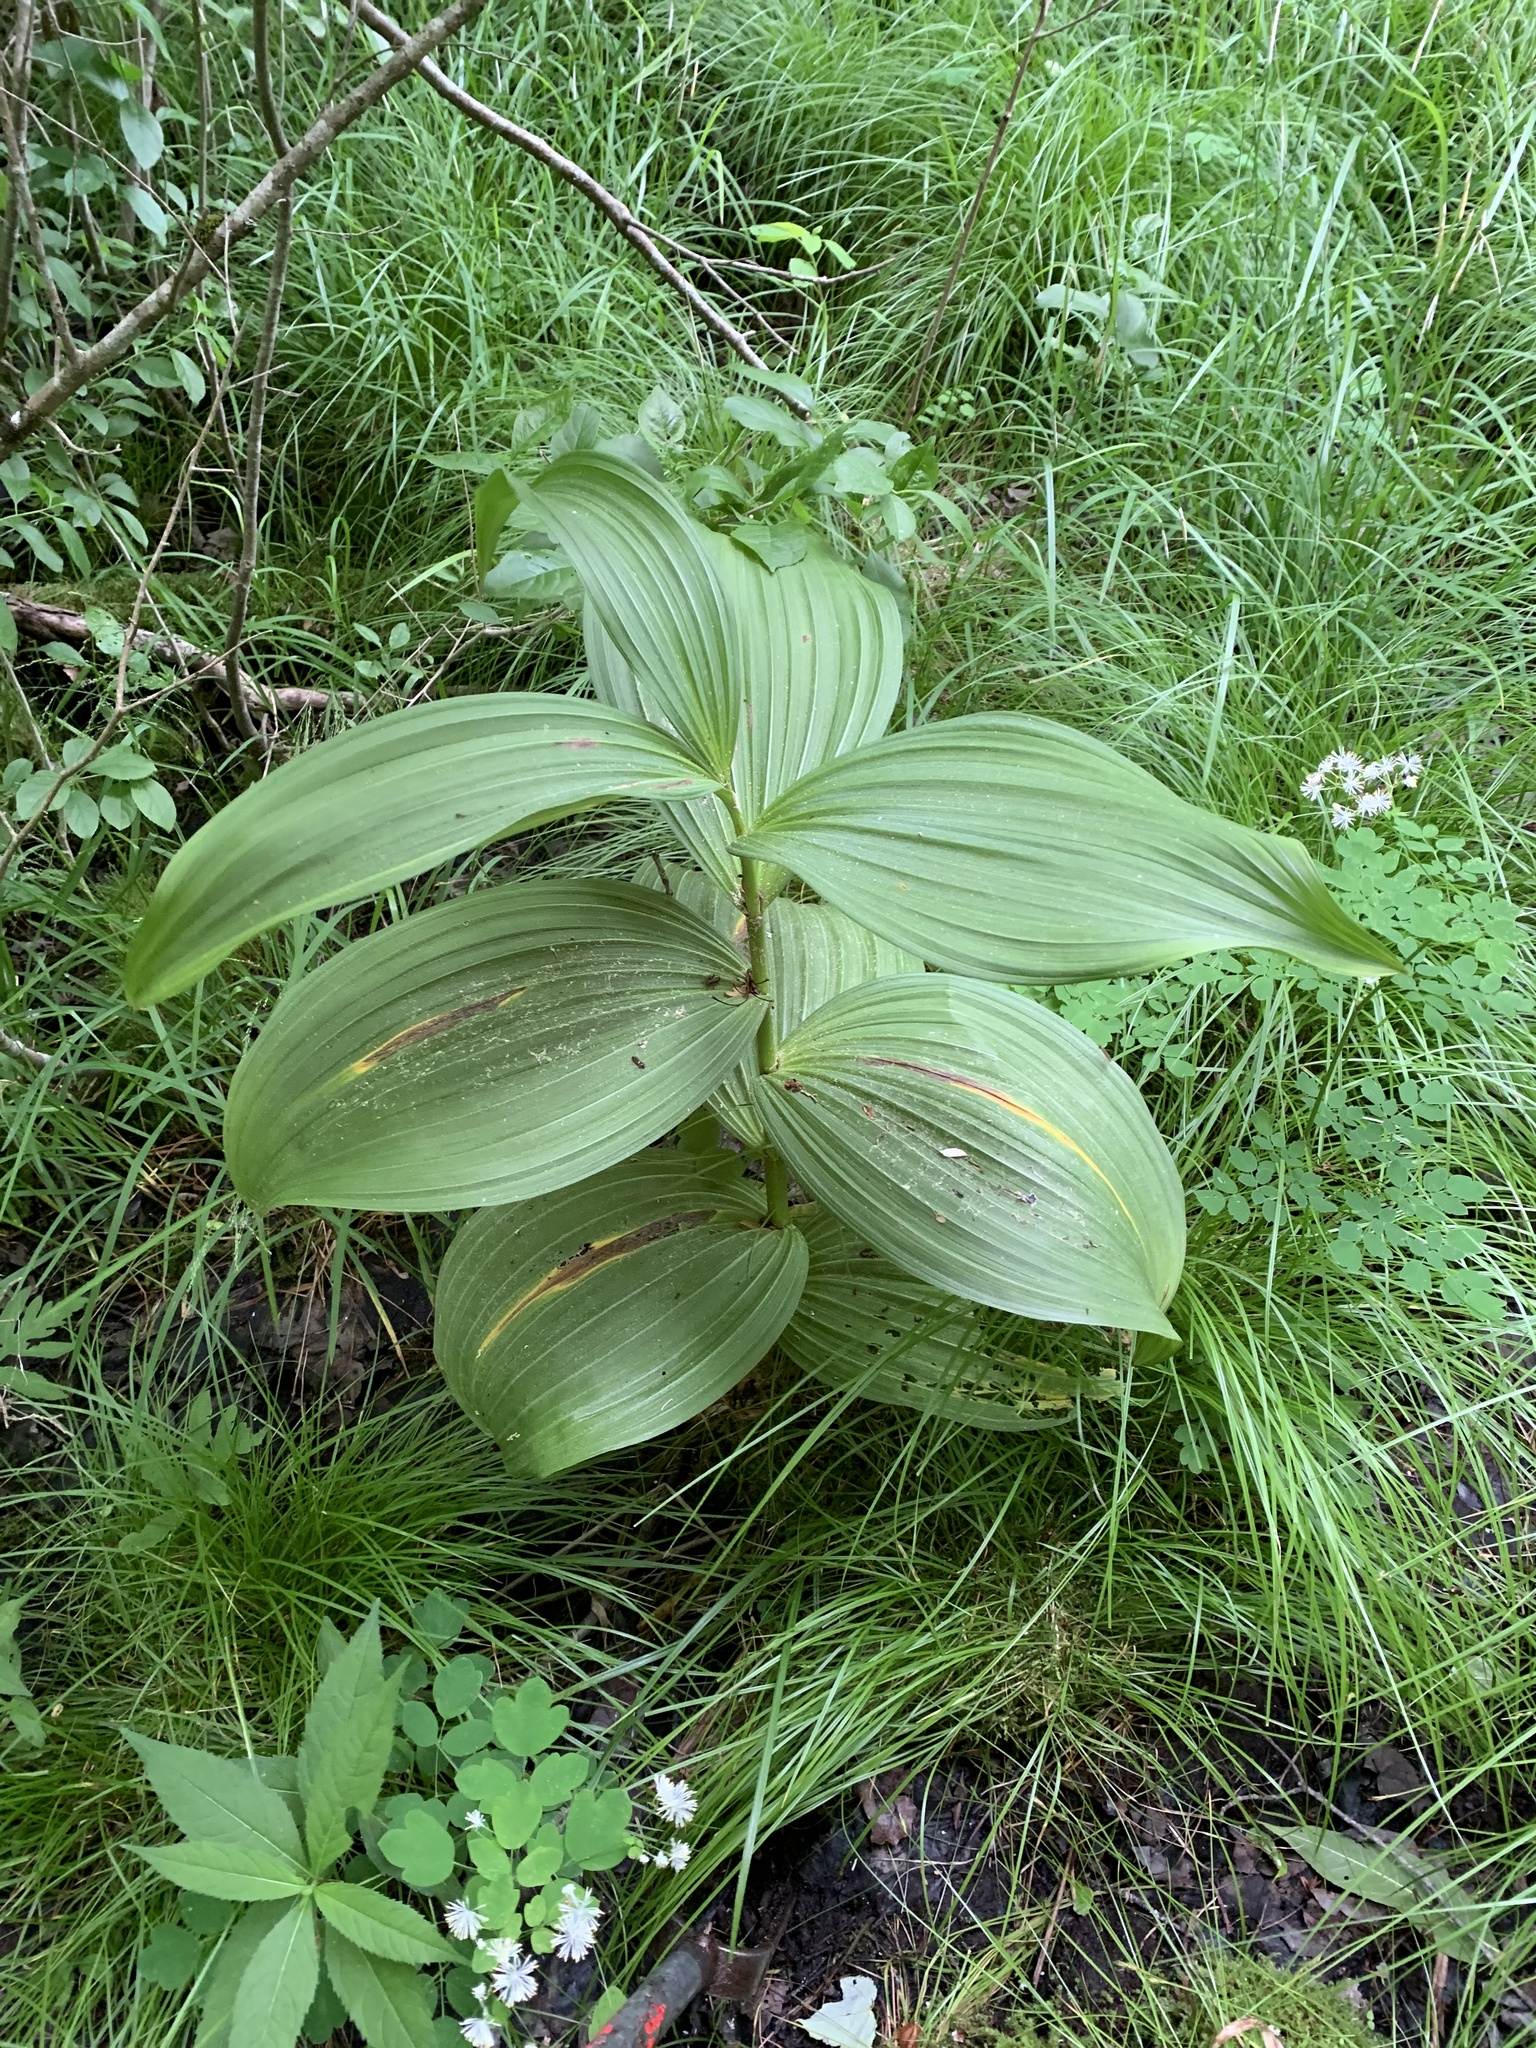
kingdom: Plantae
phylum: Tracheophyta
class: Liliopsida
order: Liliales
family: Melanthiaceae
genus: Veratrum
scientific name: Veratrum viride
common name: American false hellebore
